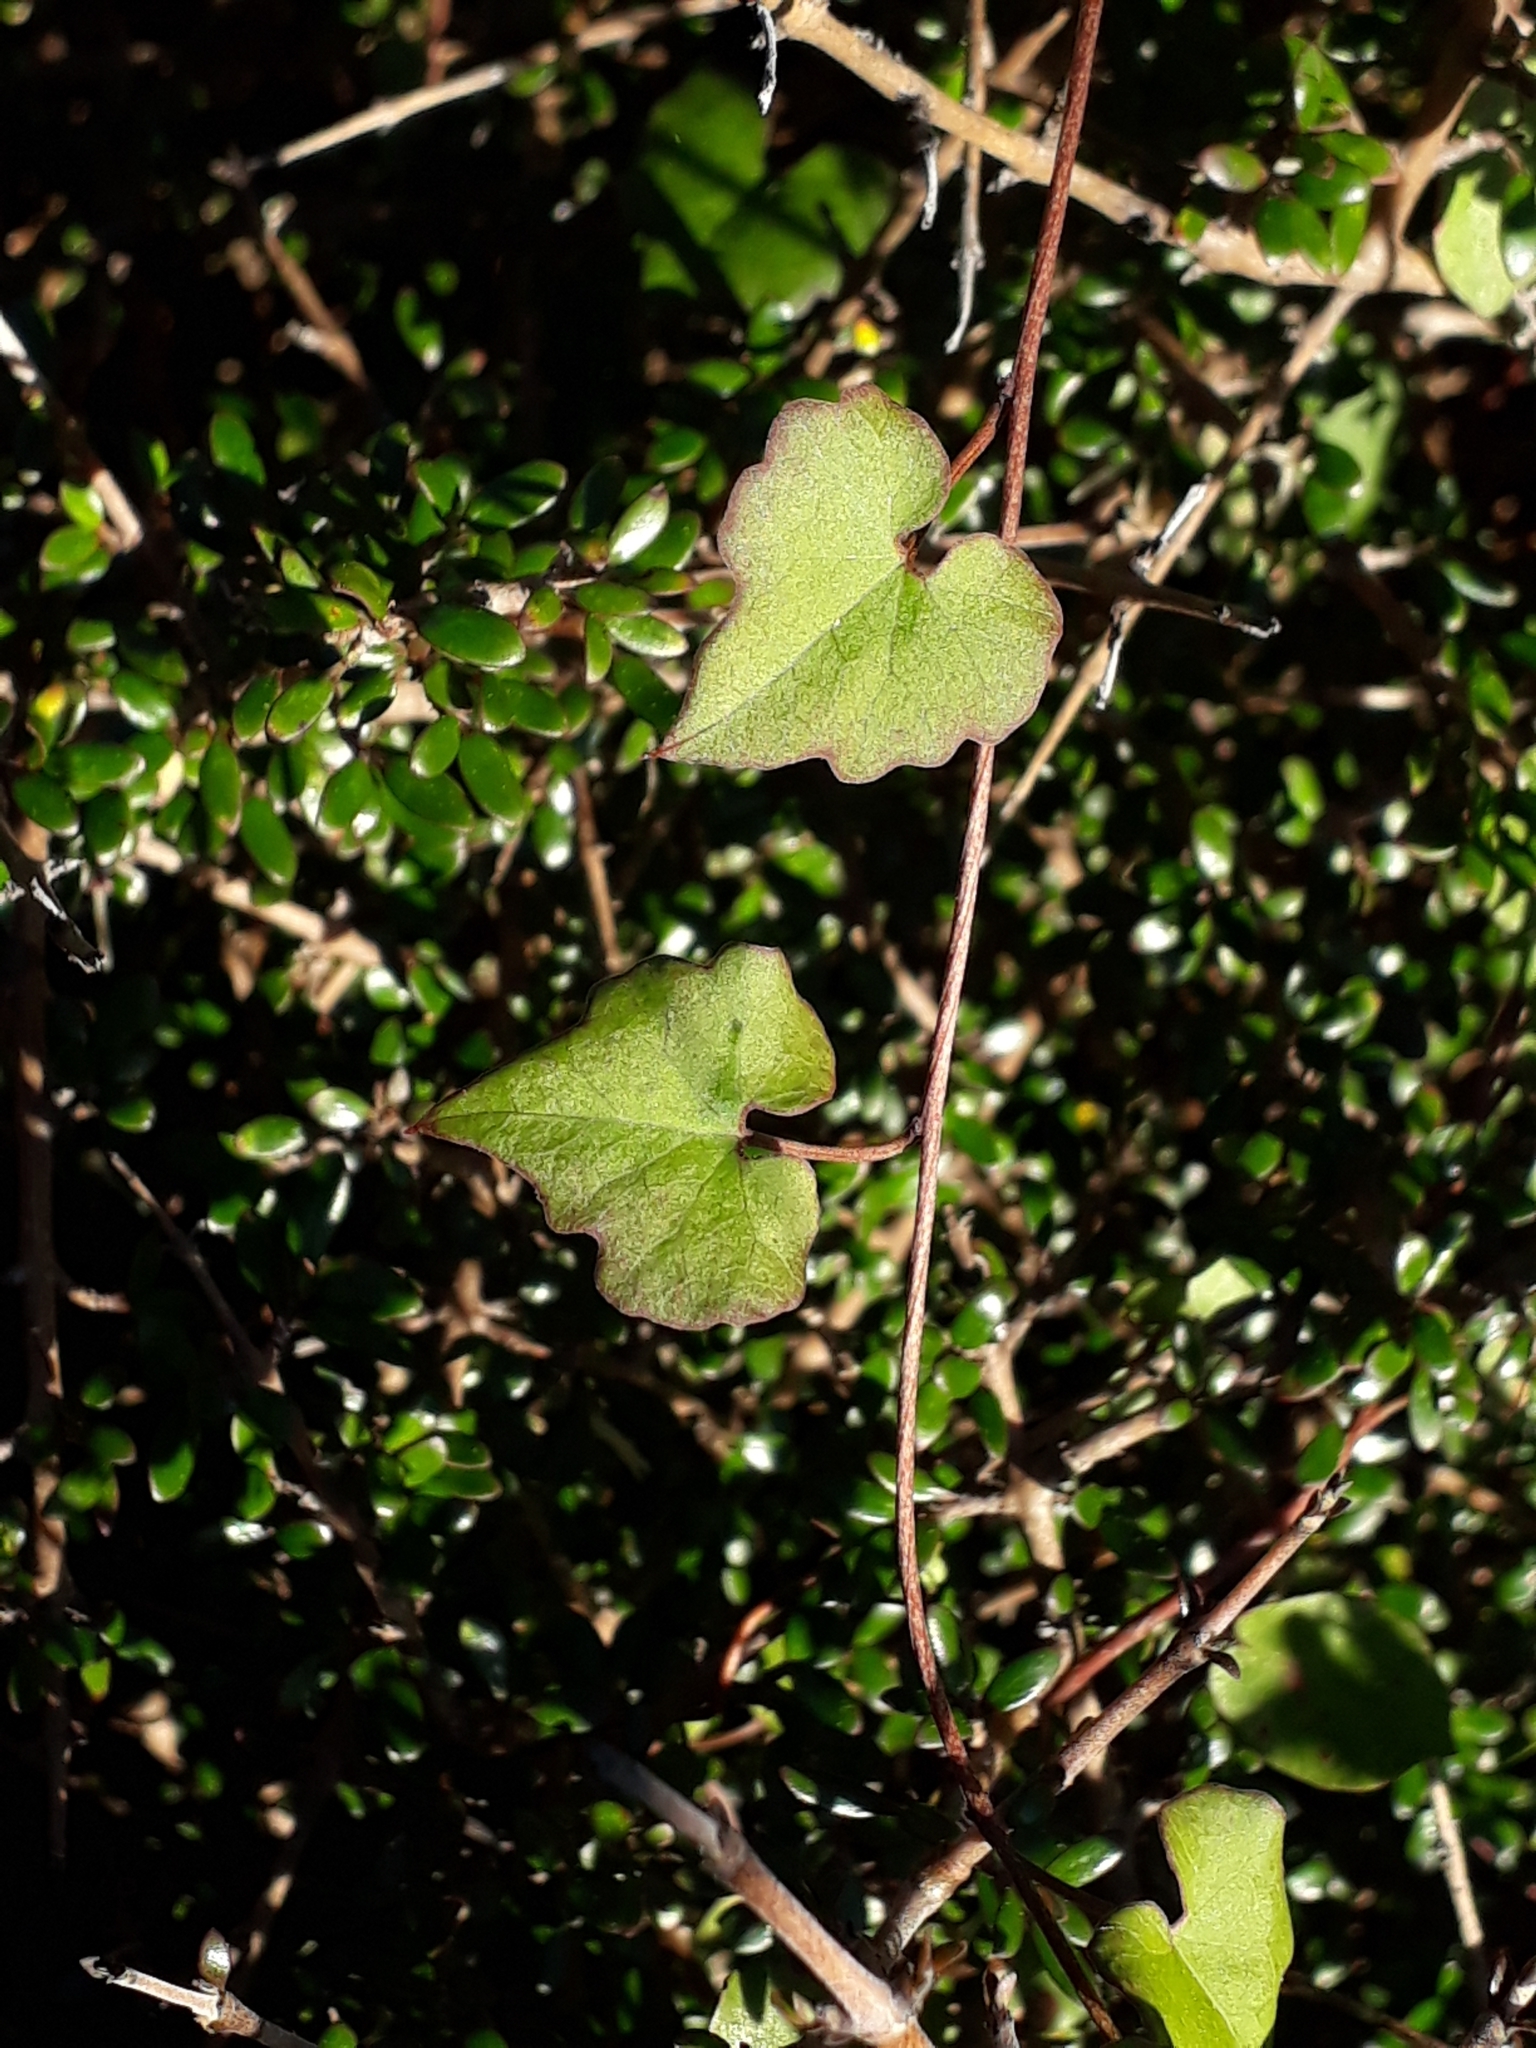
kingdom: Plantae
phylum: Tracheophyta
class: Magnoliopsida
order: Solanales
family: Convolvulaceae
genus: Calystegia
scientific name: Calystegia tuguriorum
